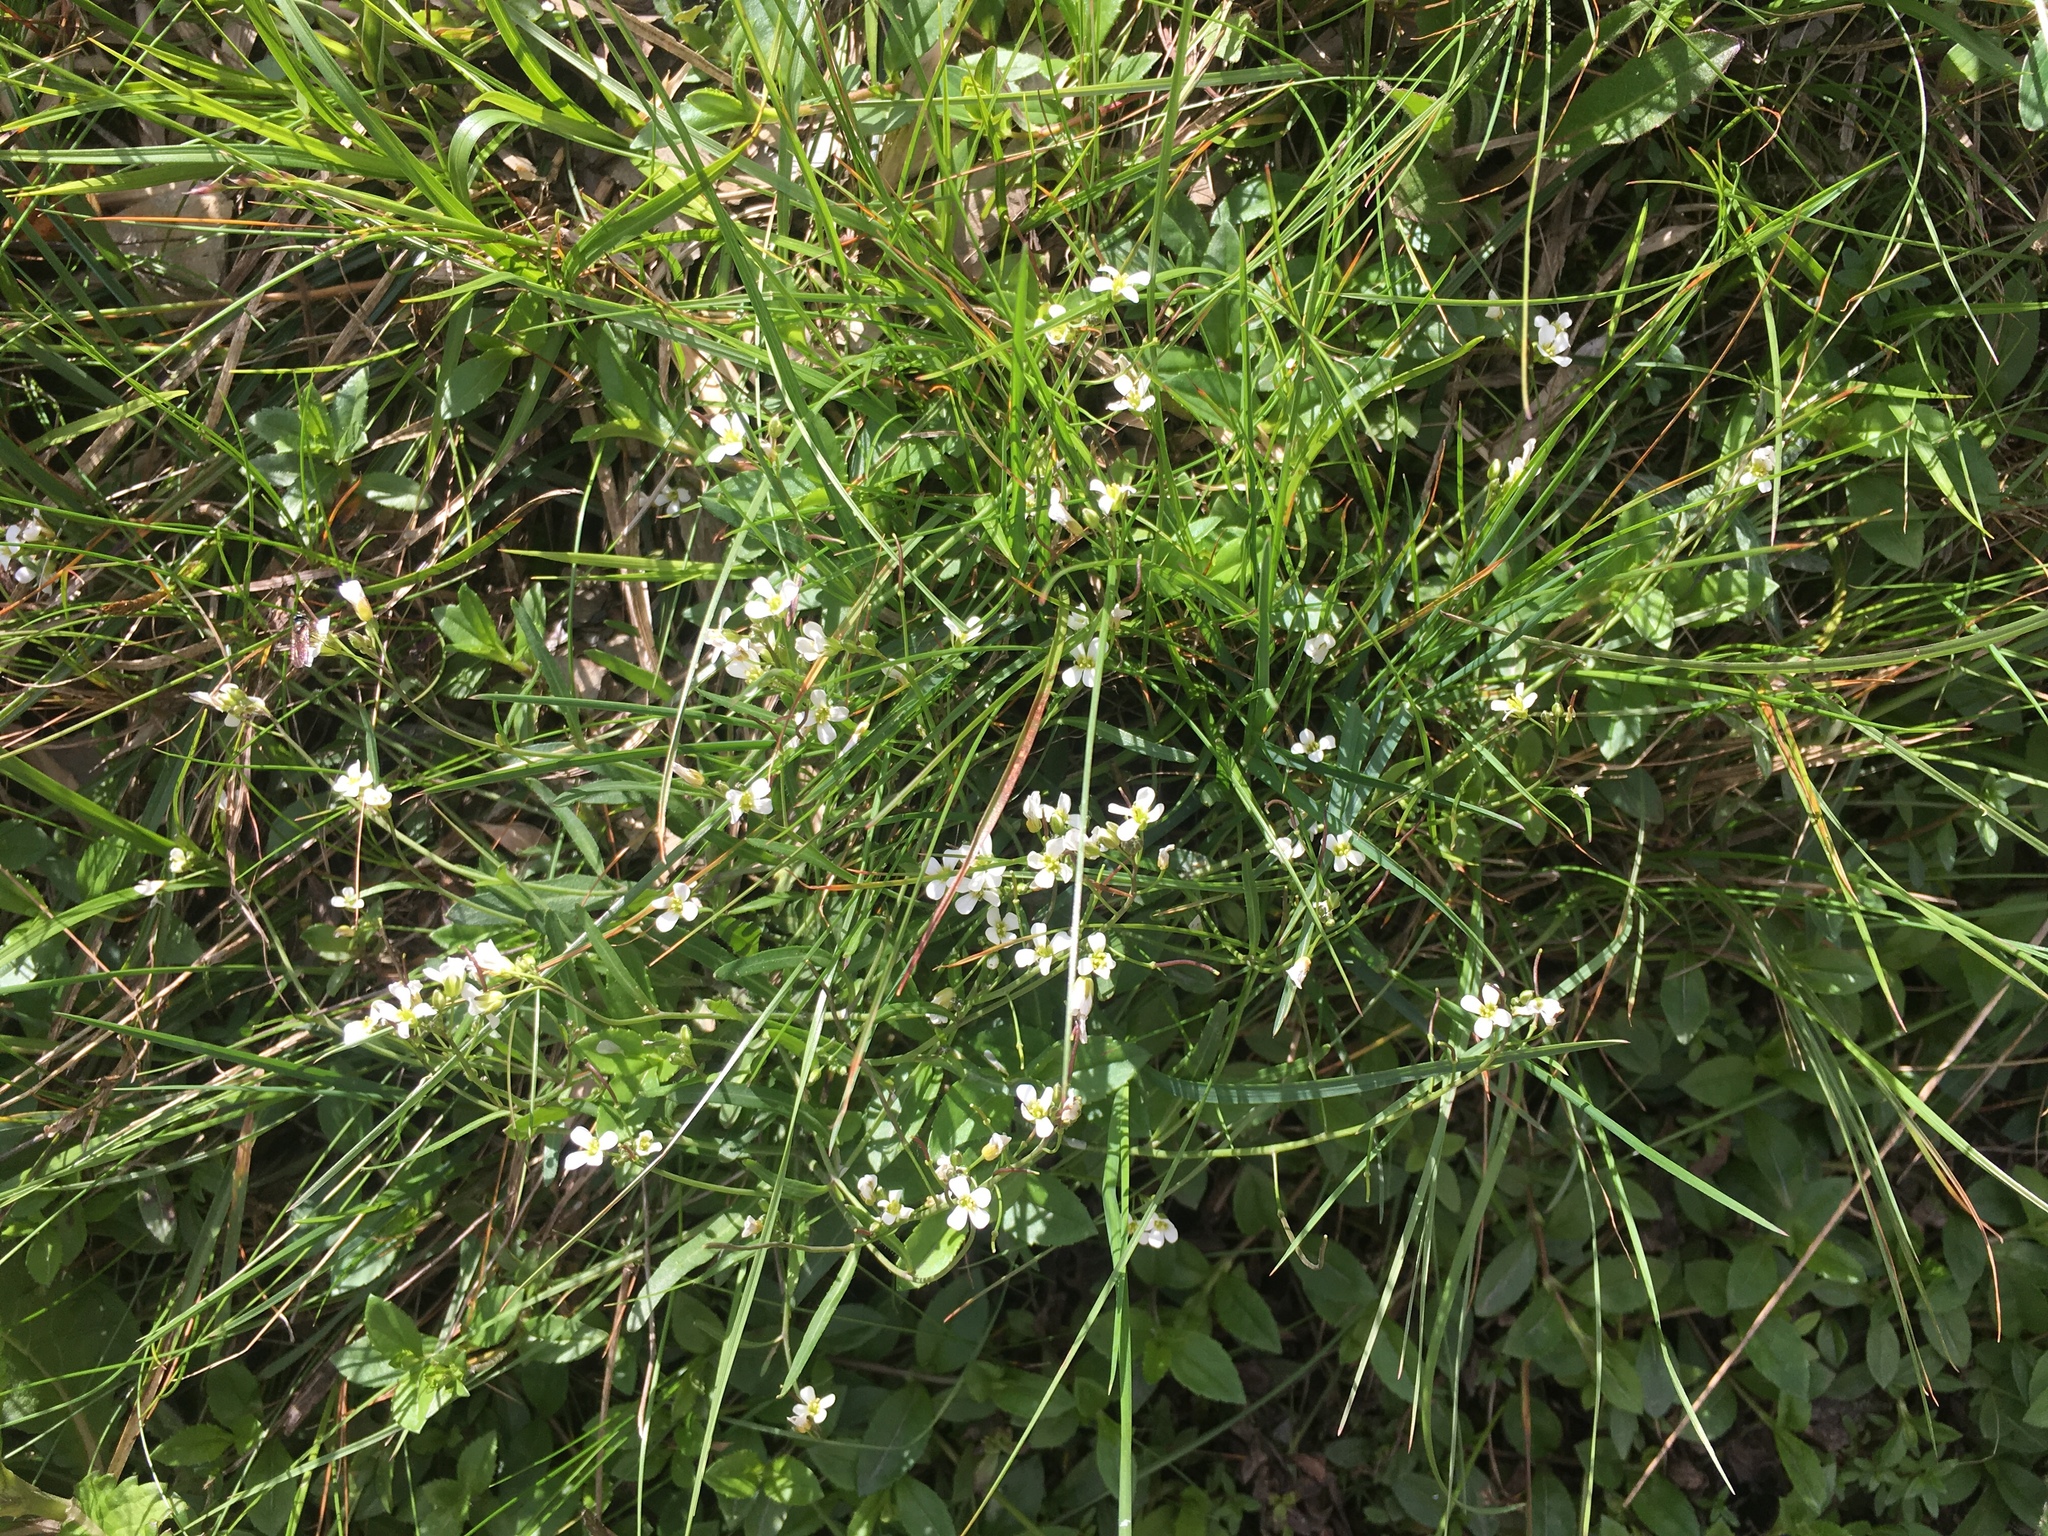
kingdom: Plantae
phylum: Tracheophyta
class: Magnoliopsida
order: Brassicales
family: Brassicaceae
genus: Arabidopsis
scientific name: Arabidopsis lyrata
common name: Lyrate rockcress
